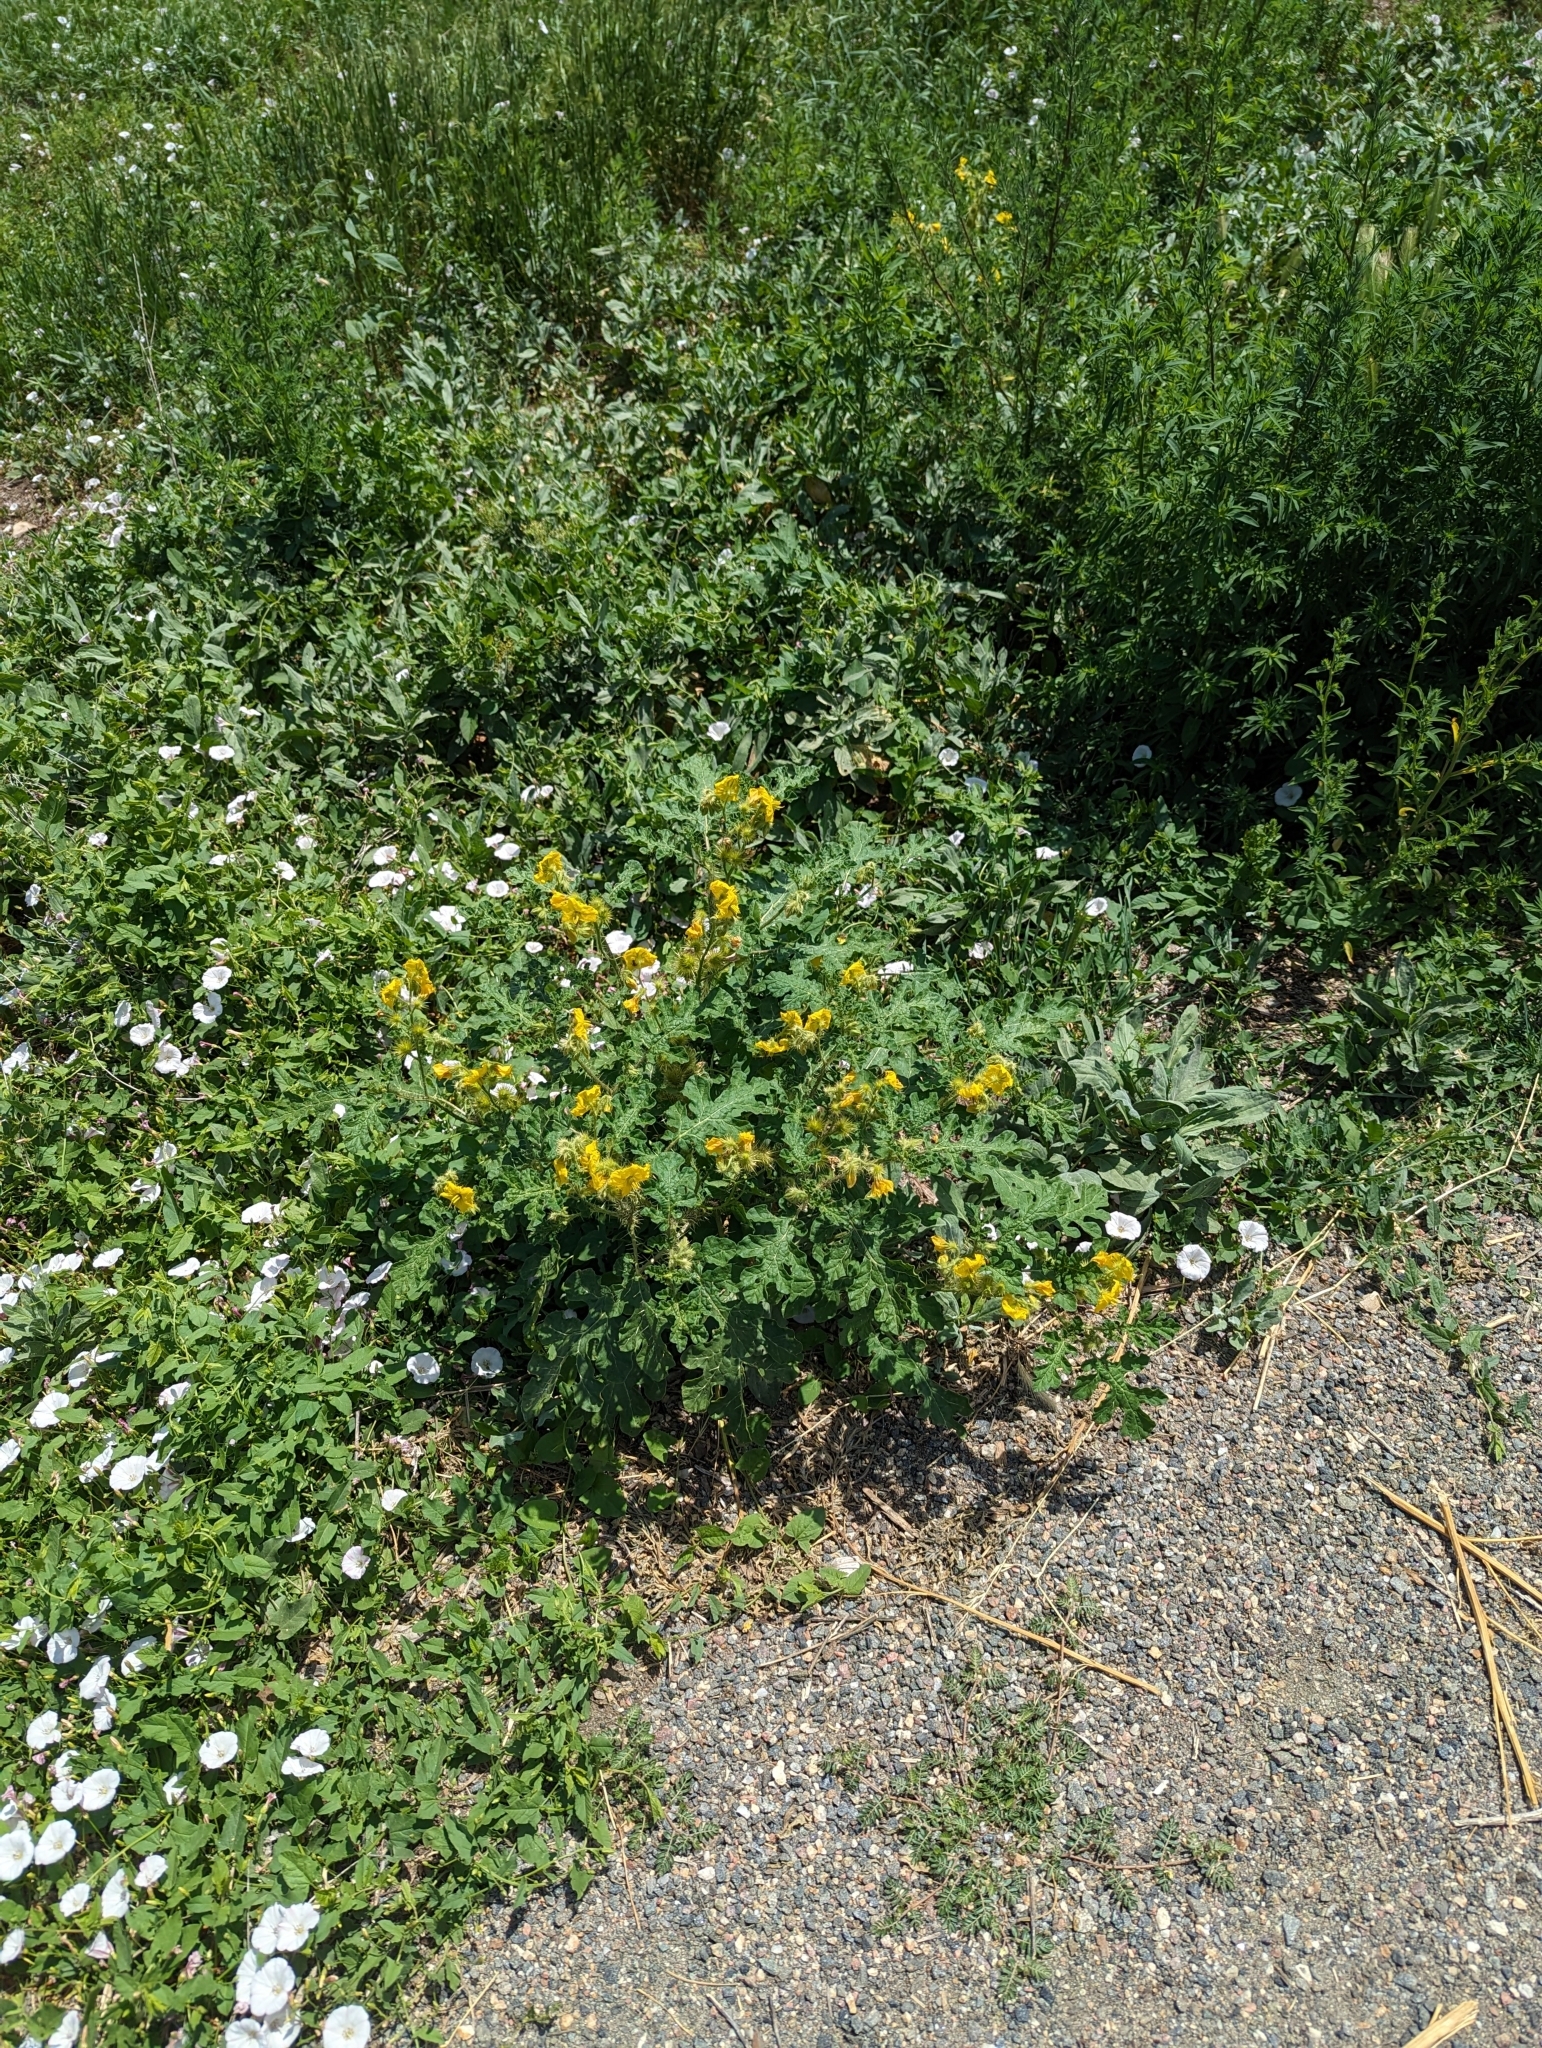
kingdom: Plantae
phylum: Tracheophyta
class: Magnoliopsida
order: Solanales
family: Solanaceae
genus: Solanum
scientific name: Solanum angustifolium
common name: Buffalobur nightshade
